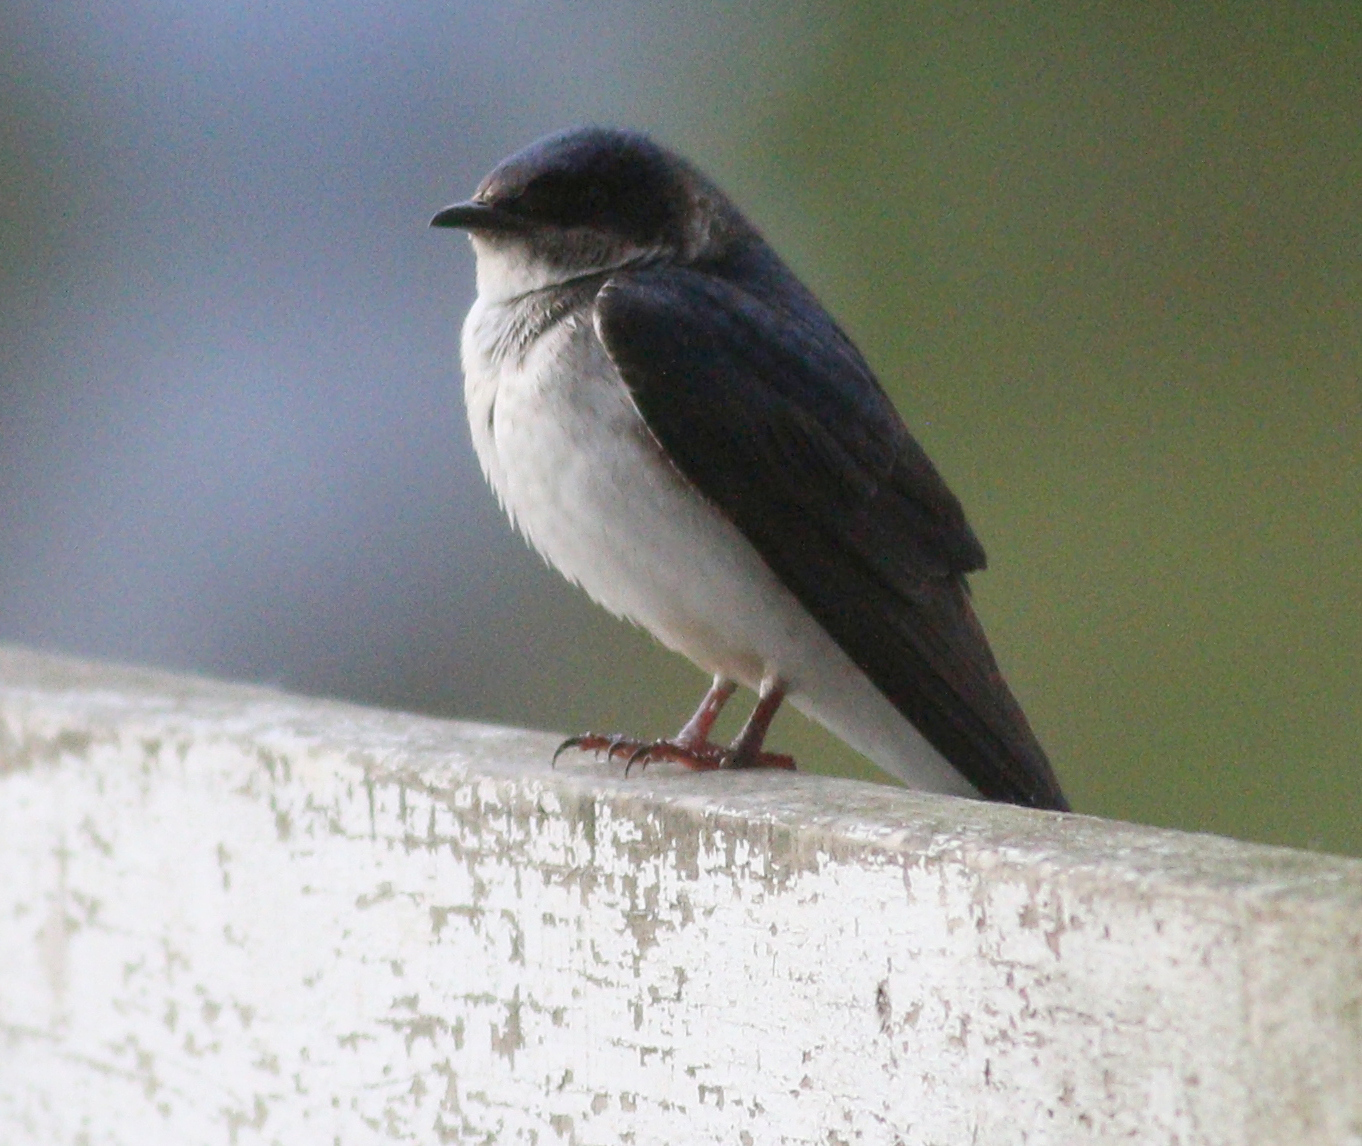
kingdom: Animalia
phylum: Chordata
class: Aves
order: Passeriformes
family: Hirundinidae
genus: Progne
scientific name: Progne chalybea
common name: Grey-breasted martin
